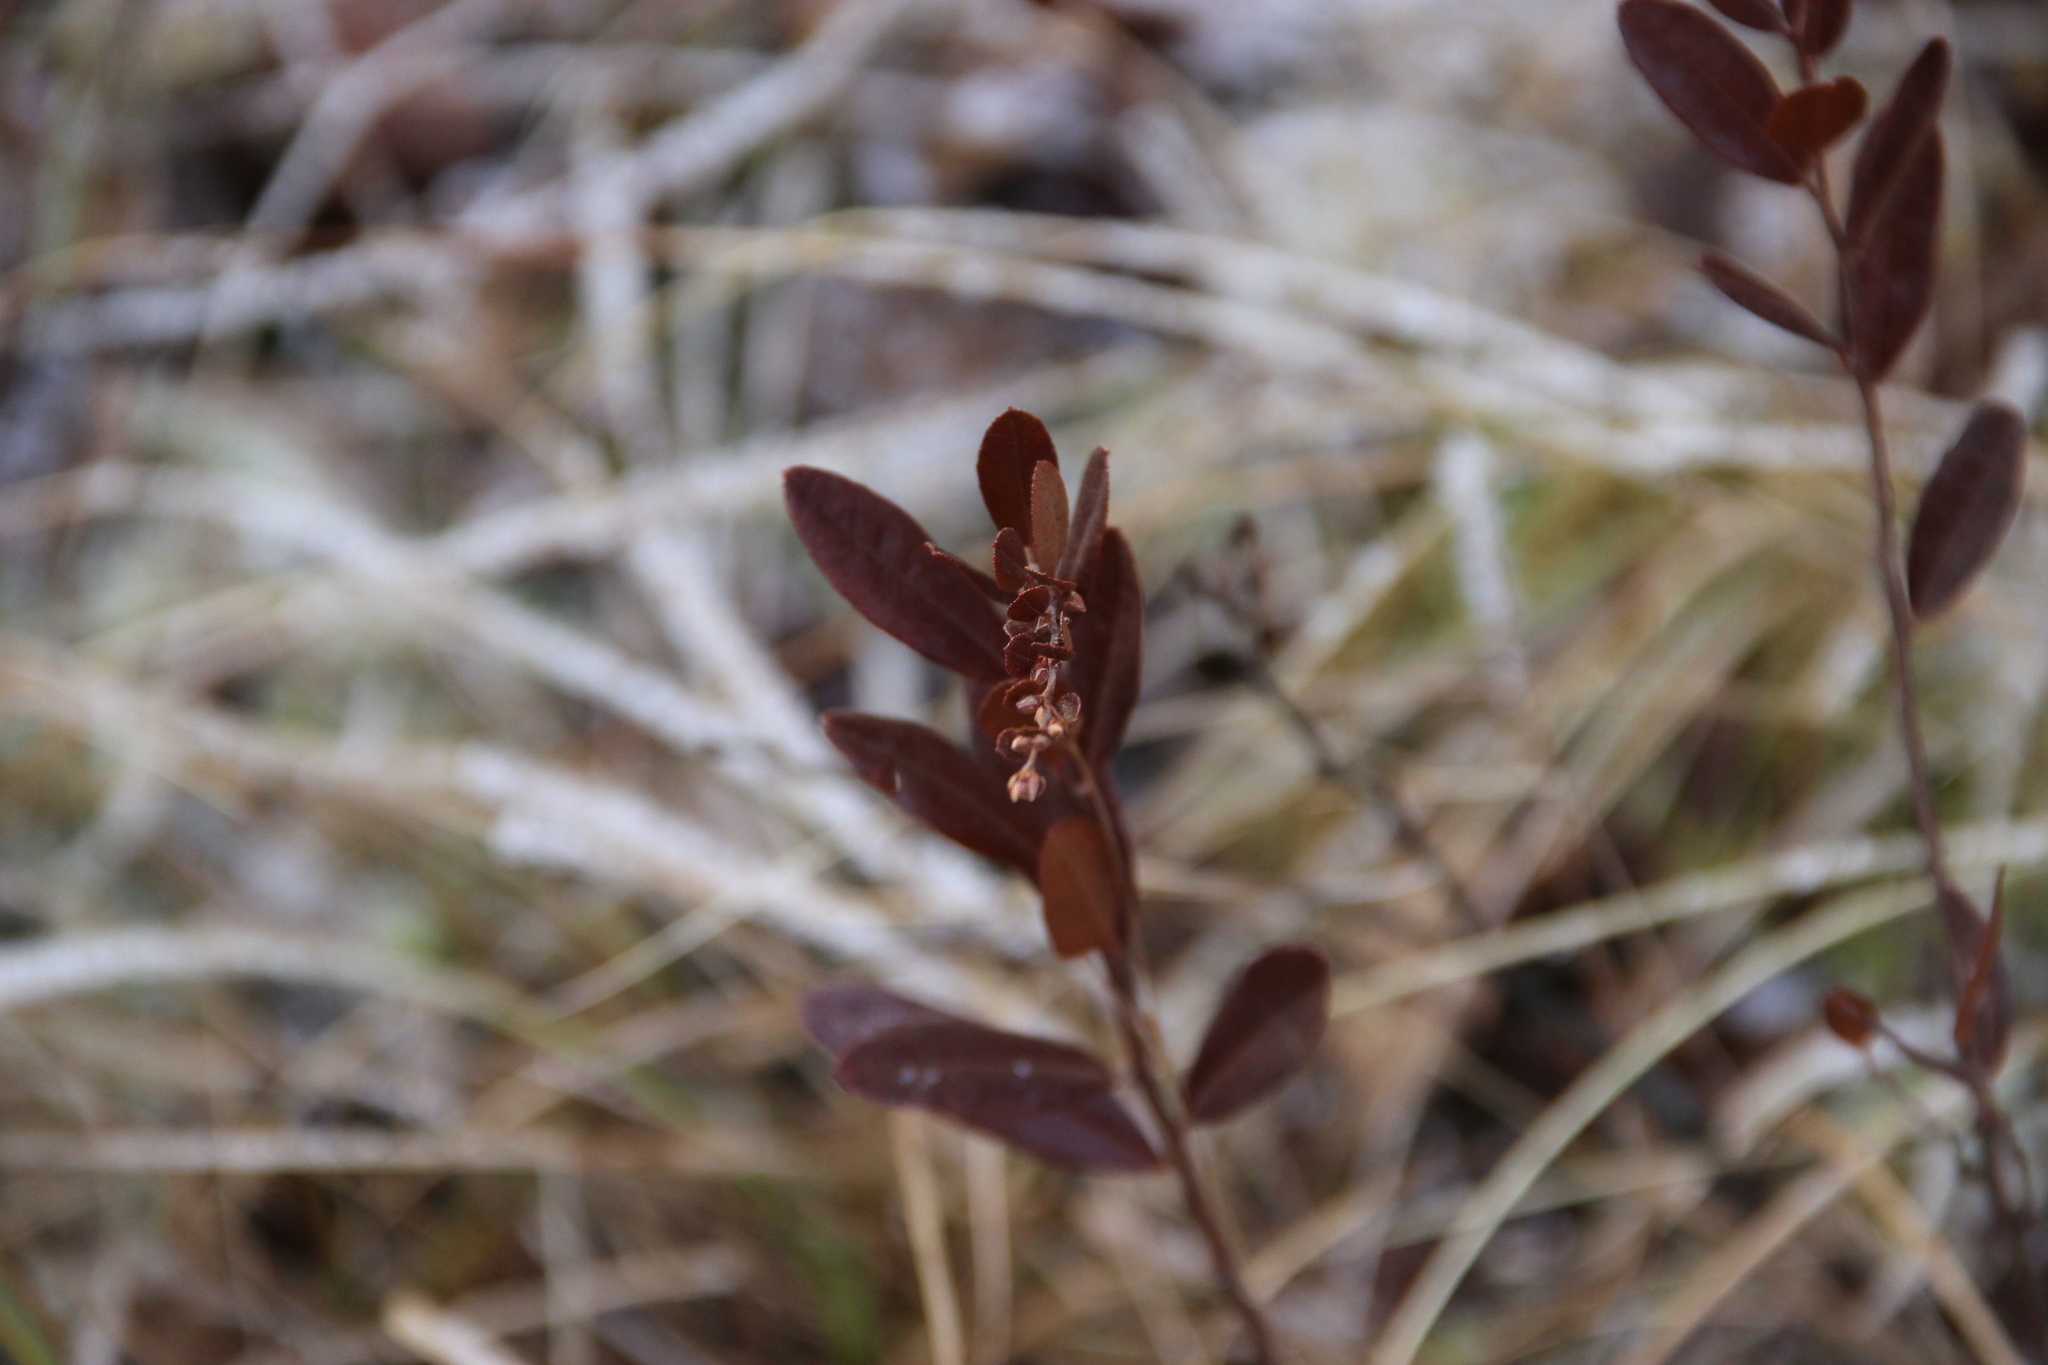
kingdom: Plantae
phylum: Tracheophyta
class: Magnoliopsida
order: Ericales
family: Ericaceae
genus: Chamaedaphne
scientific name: Chamaedaphne calyculata
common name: Leatherleaf
